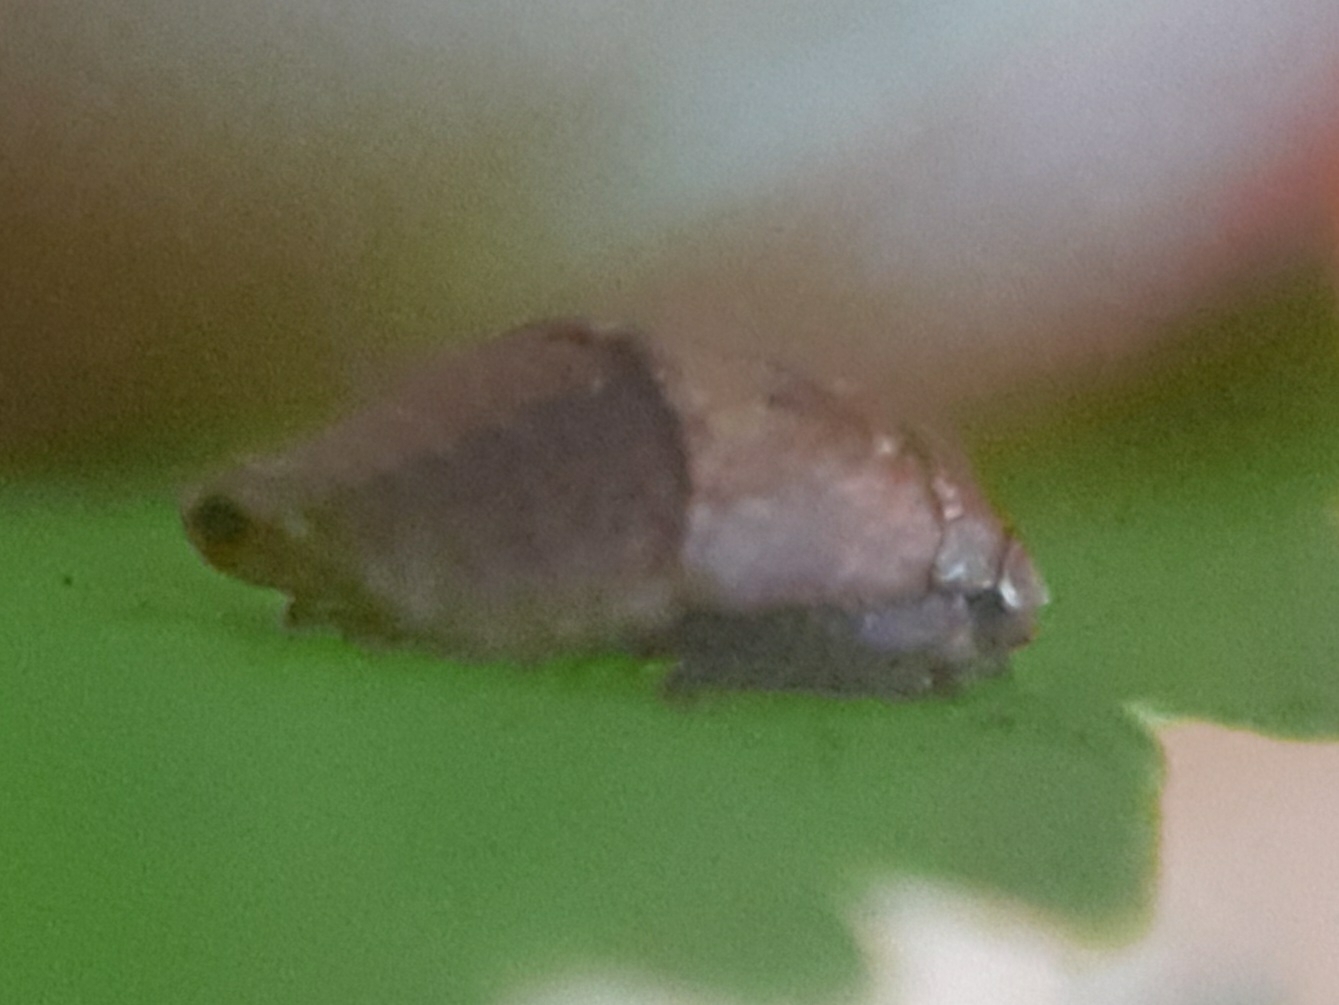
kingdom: Animalia
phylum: Arthropoda
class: Insecta
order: Hemiptera
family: Cicadellidae
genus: Penthimia
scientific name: Penthimia nigra
